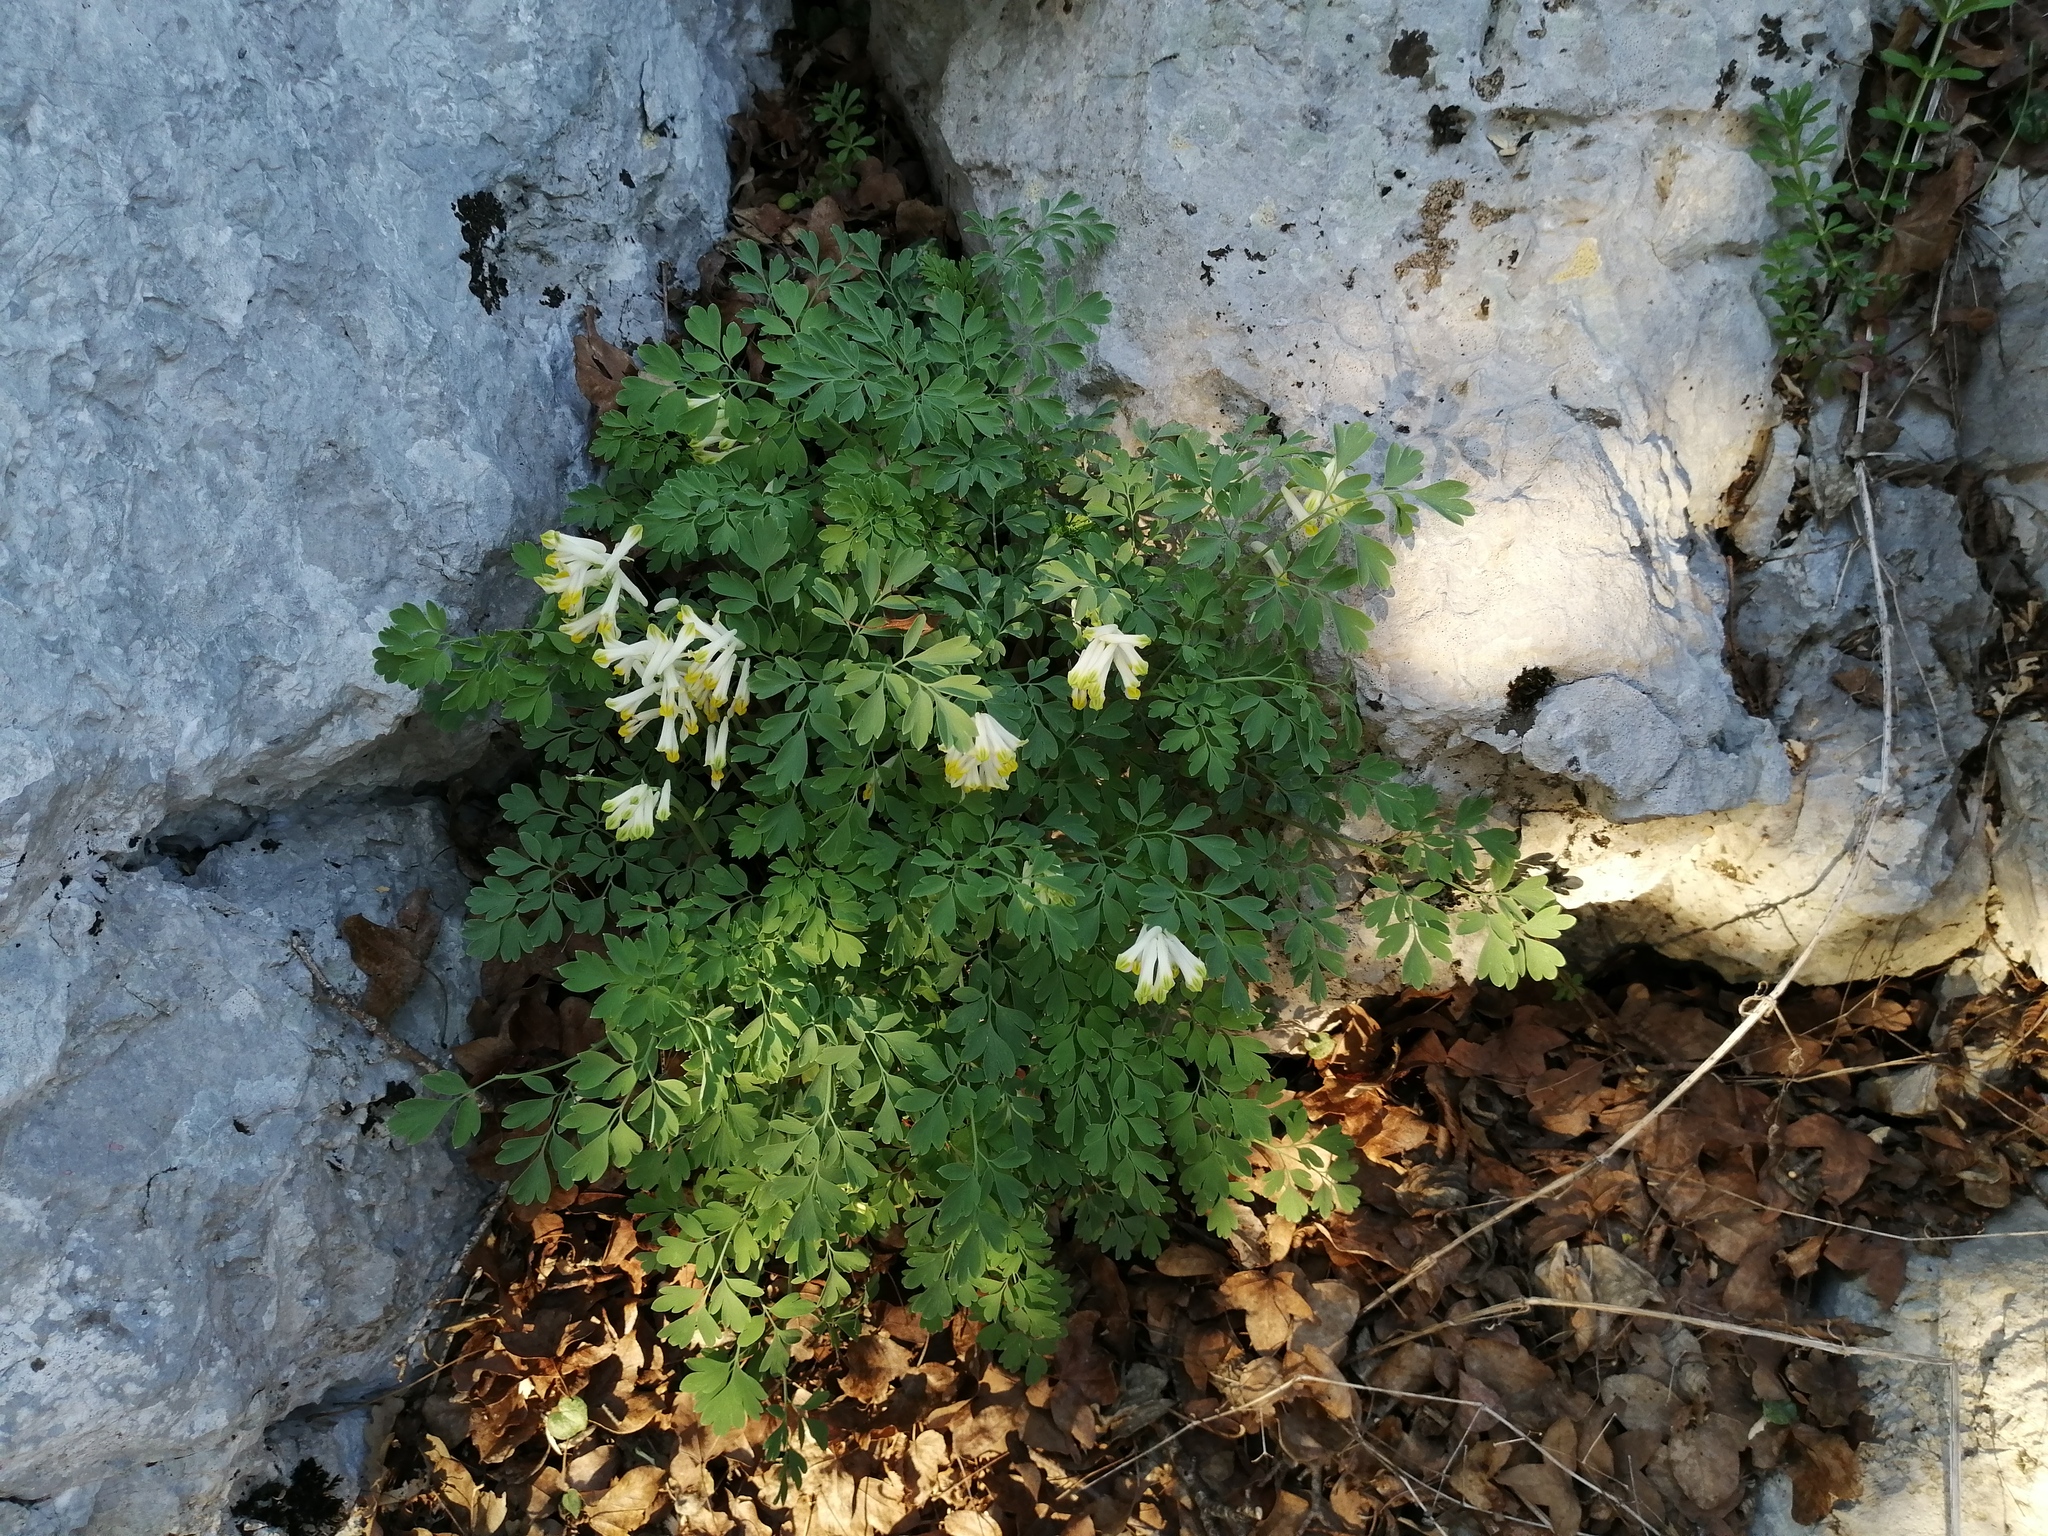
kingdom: Plantae
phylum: Tracheophyta
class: Magnoliopsida
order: Ranunculales
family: Papaveraceae
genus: Pseudofumaria
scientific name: Pseudofumaria alba
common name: Pale corydalis
